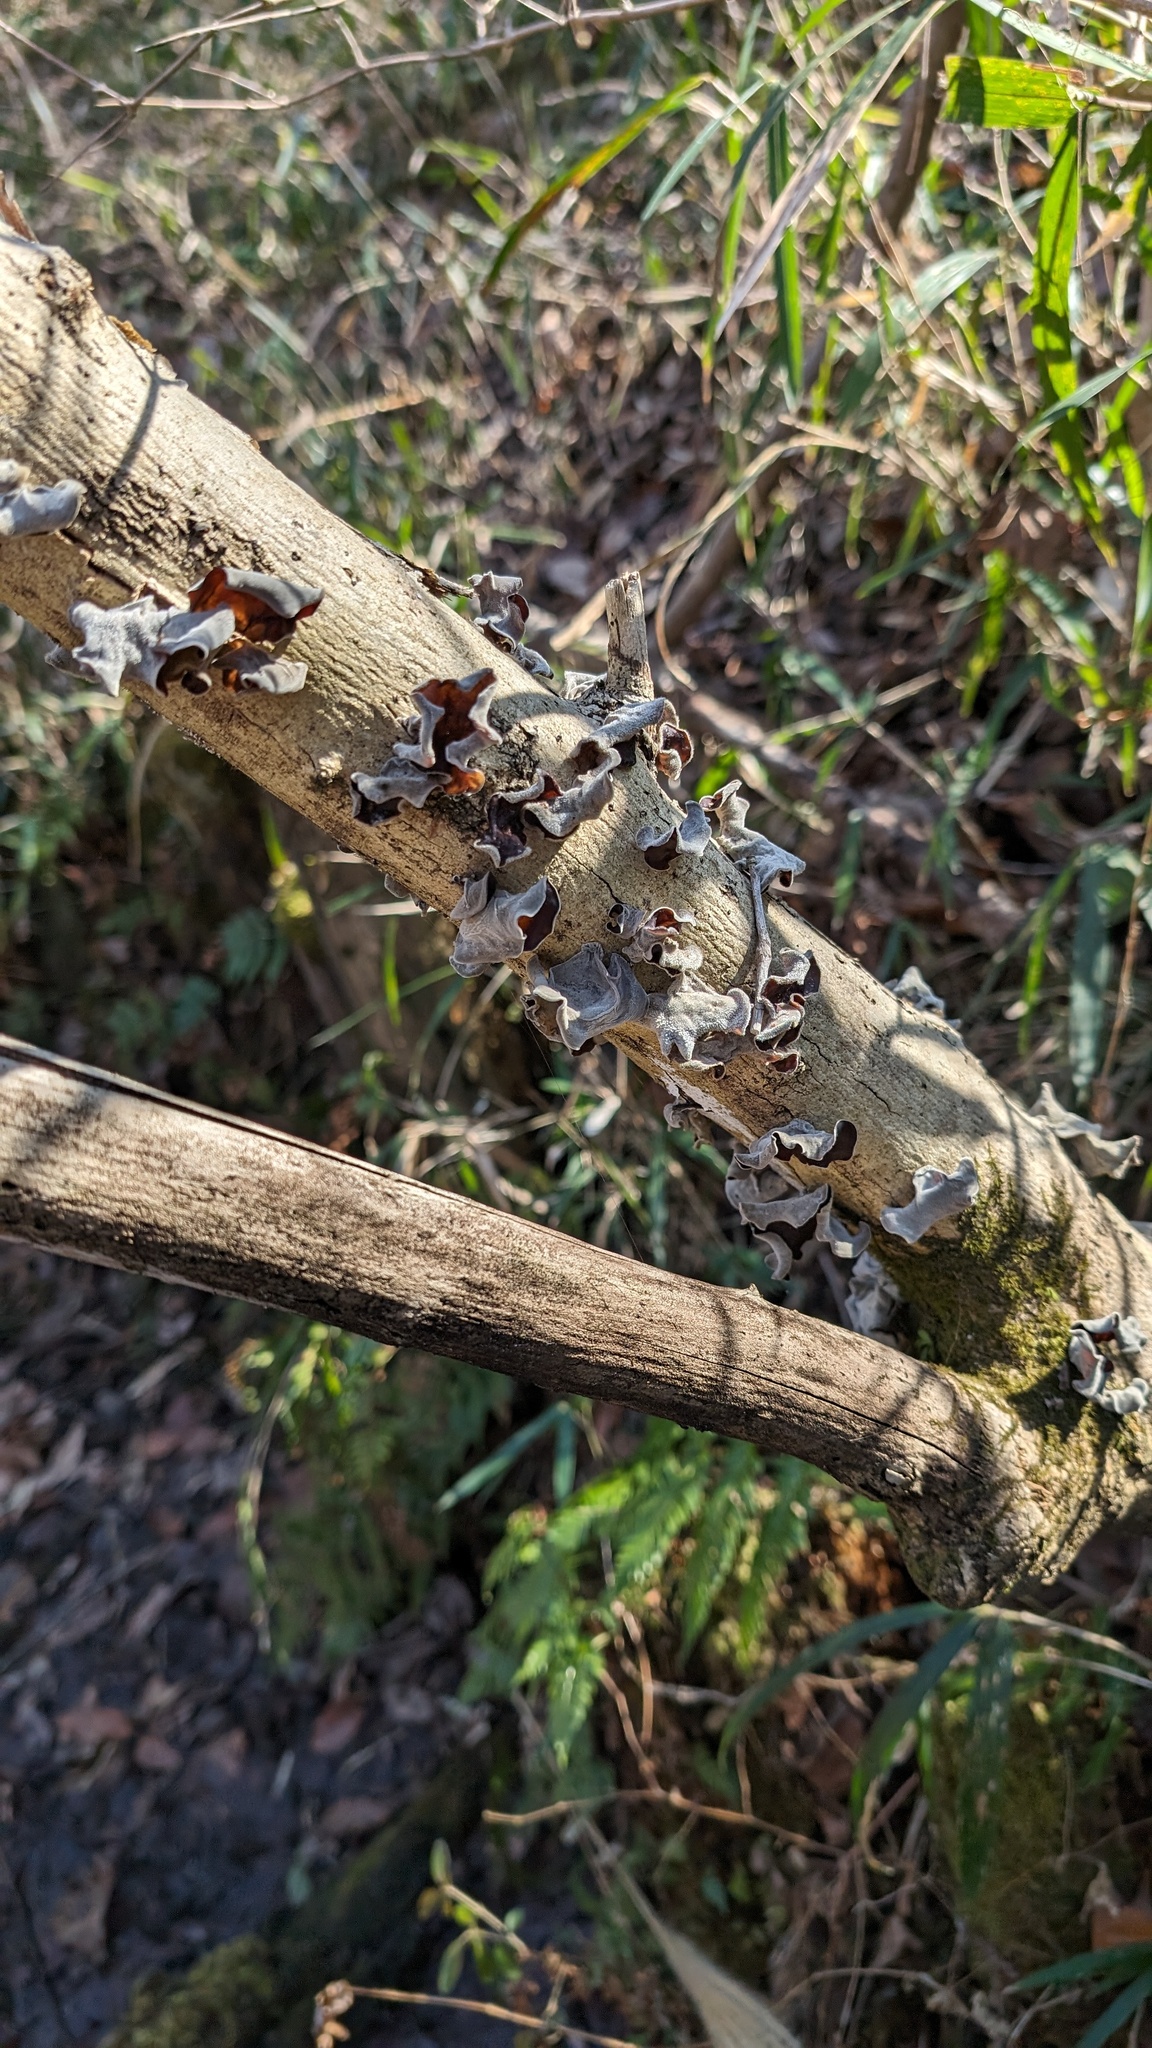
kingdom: Fungi
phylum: Basidiomycota
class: Agaricomycetes
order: Auriculariales
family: Auriculariaceae
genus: Auricularia
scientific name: Auricularia nigricans
